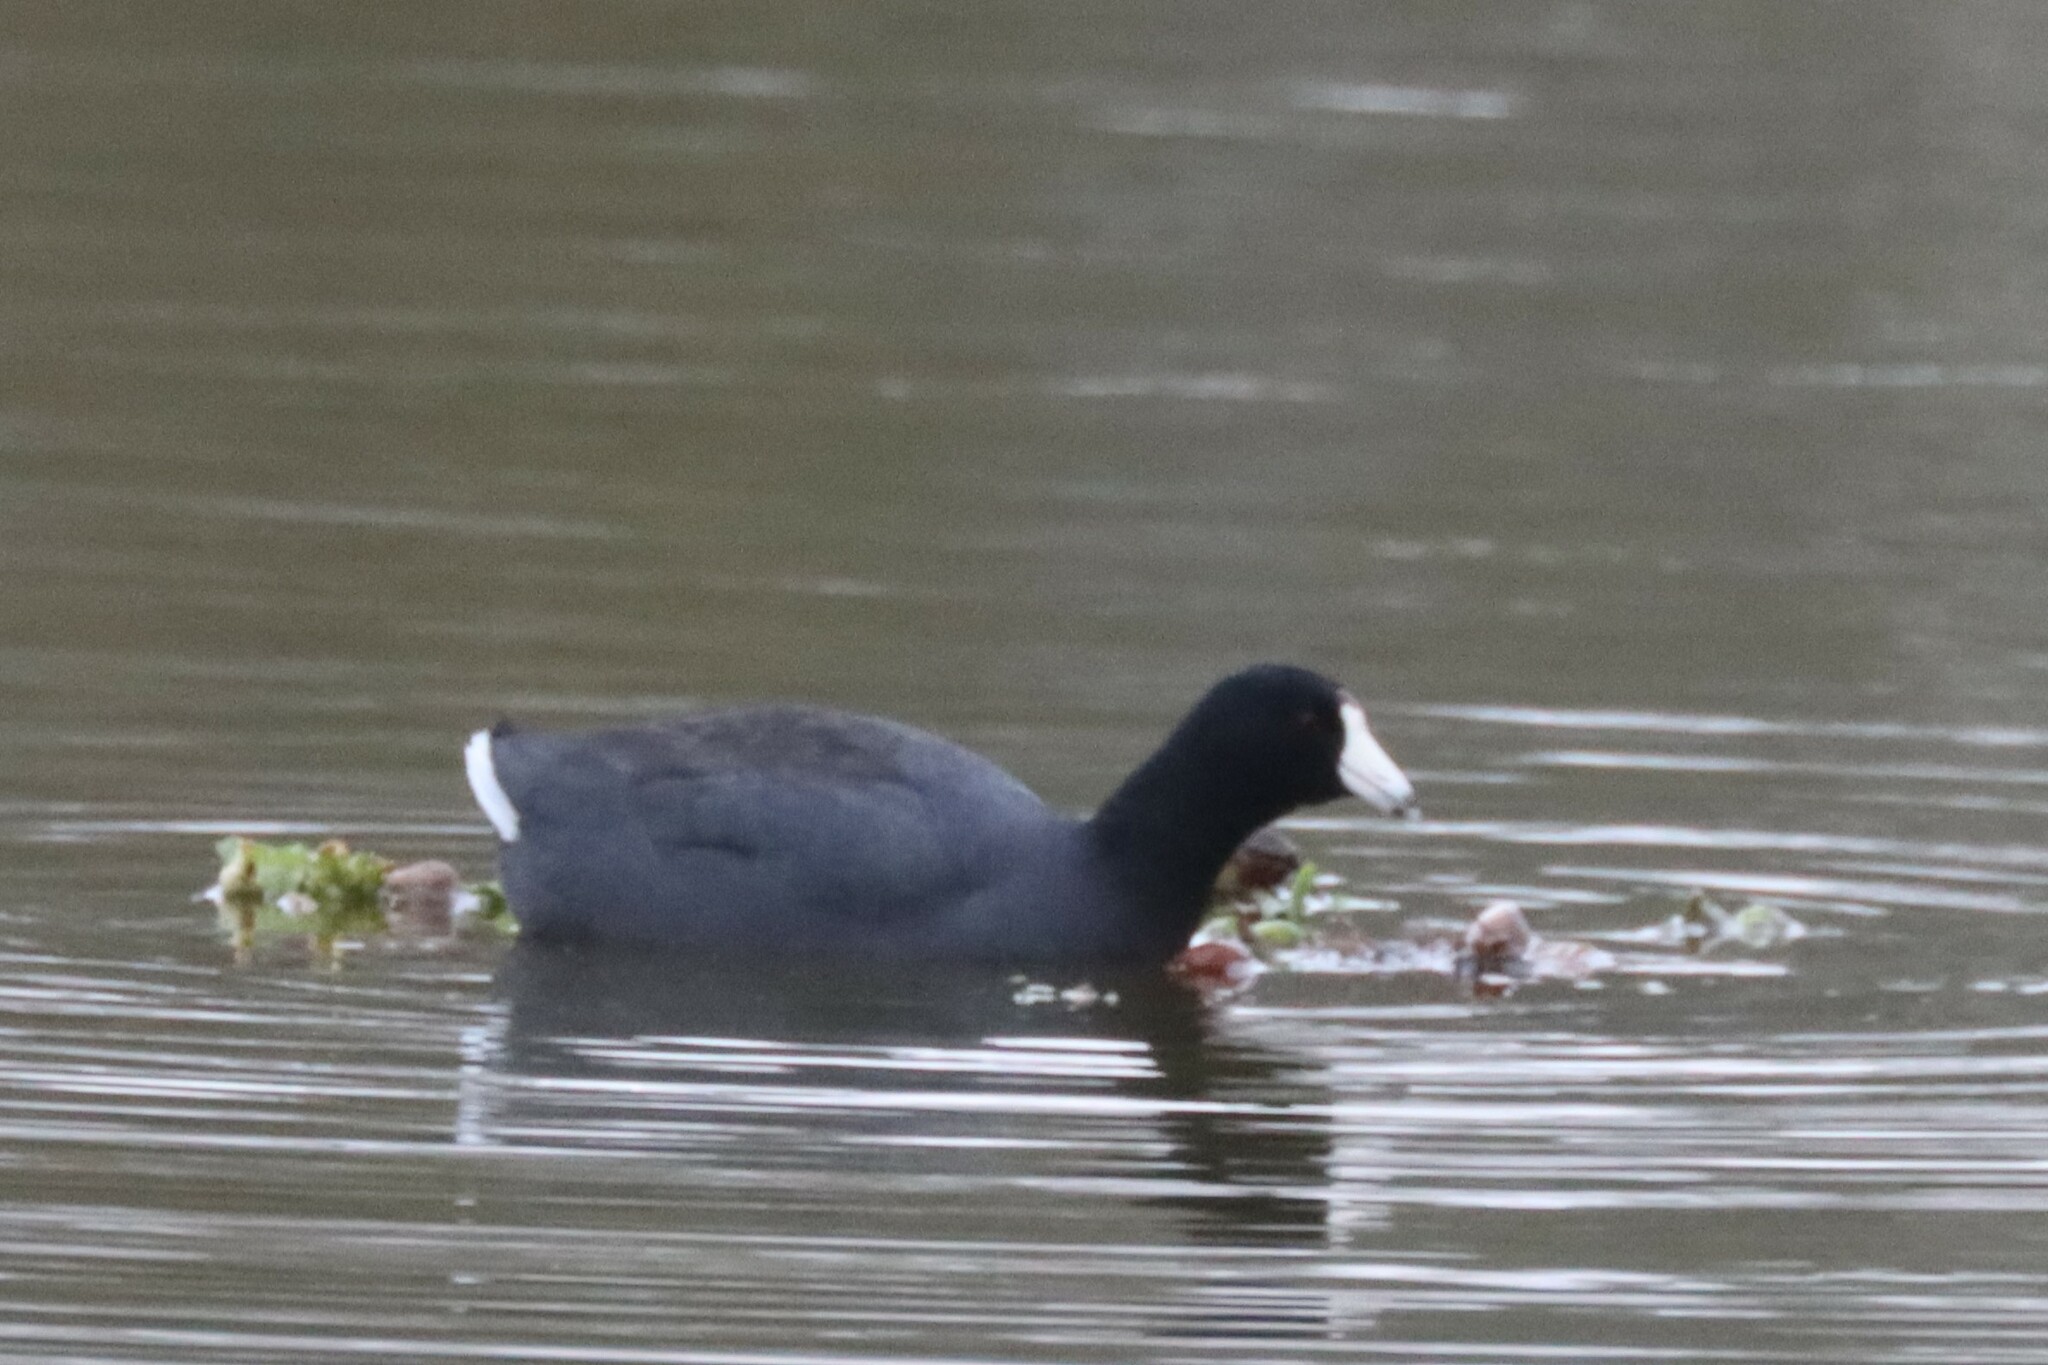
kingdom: Animalia
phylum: Chordata
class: Aves
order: Gruiformes
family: Rallidae
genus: Fulica
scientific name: Fulica americana
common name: American coot
